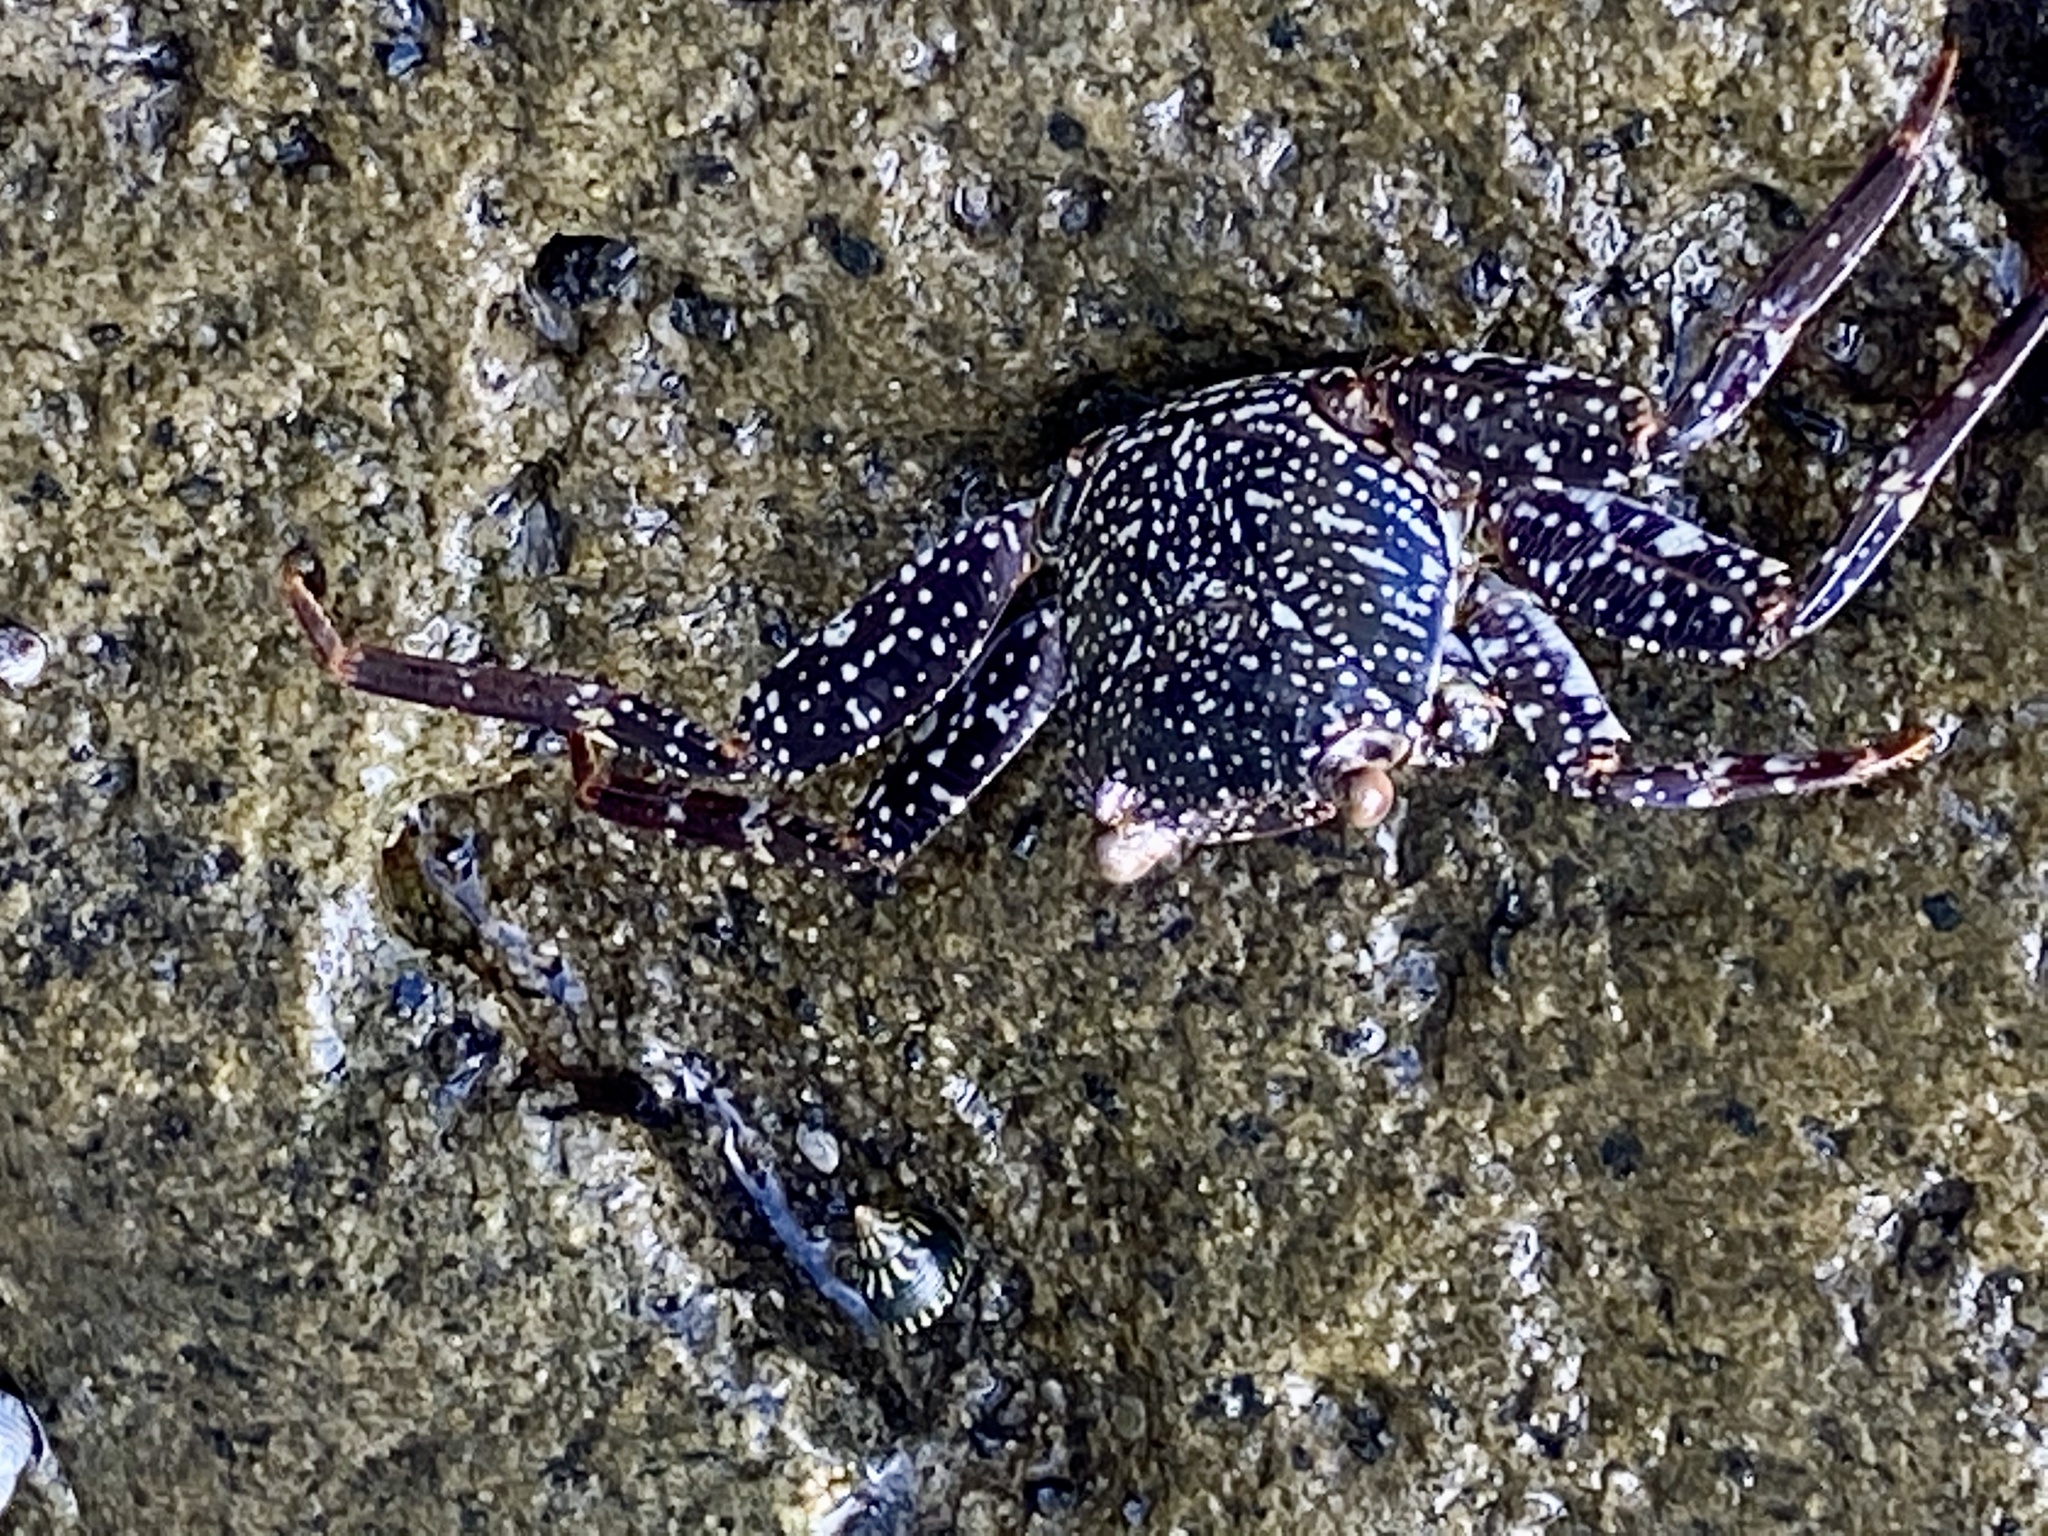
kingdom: Animalia
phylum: Arthropoda
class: Malacostraca
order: Decapoda
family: Grapsidae
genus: Grapsus
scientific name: Grapsus grapsus
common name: Sally lightfoot
